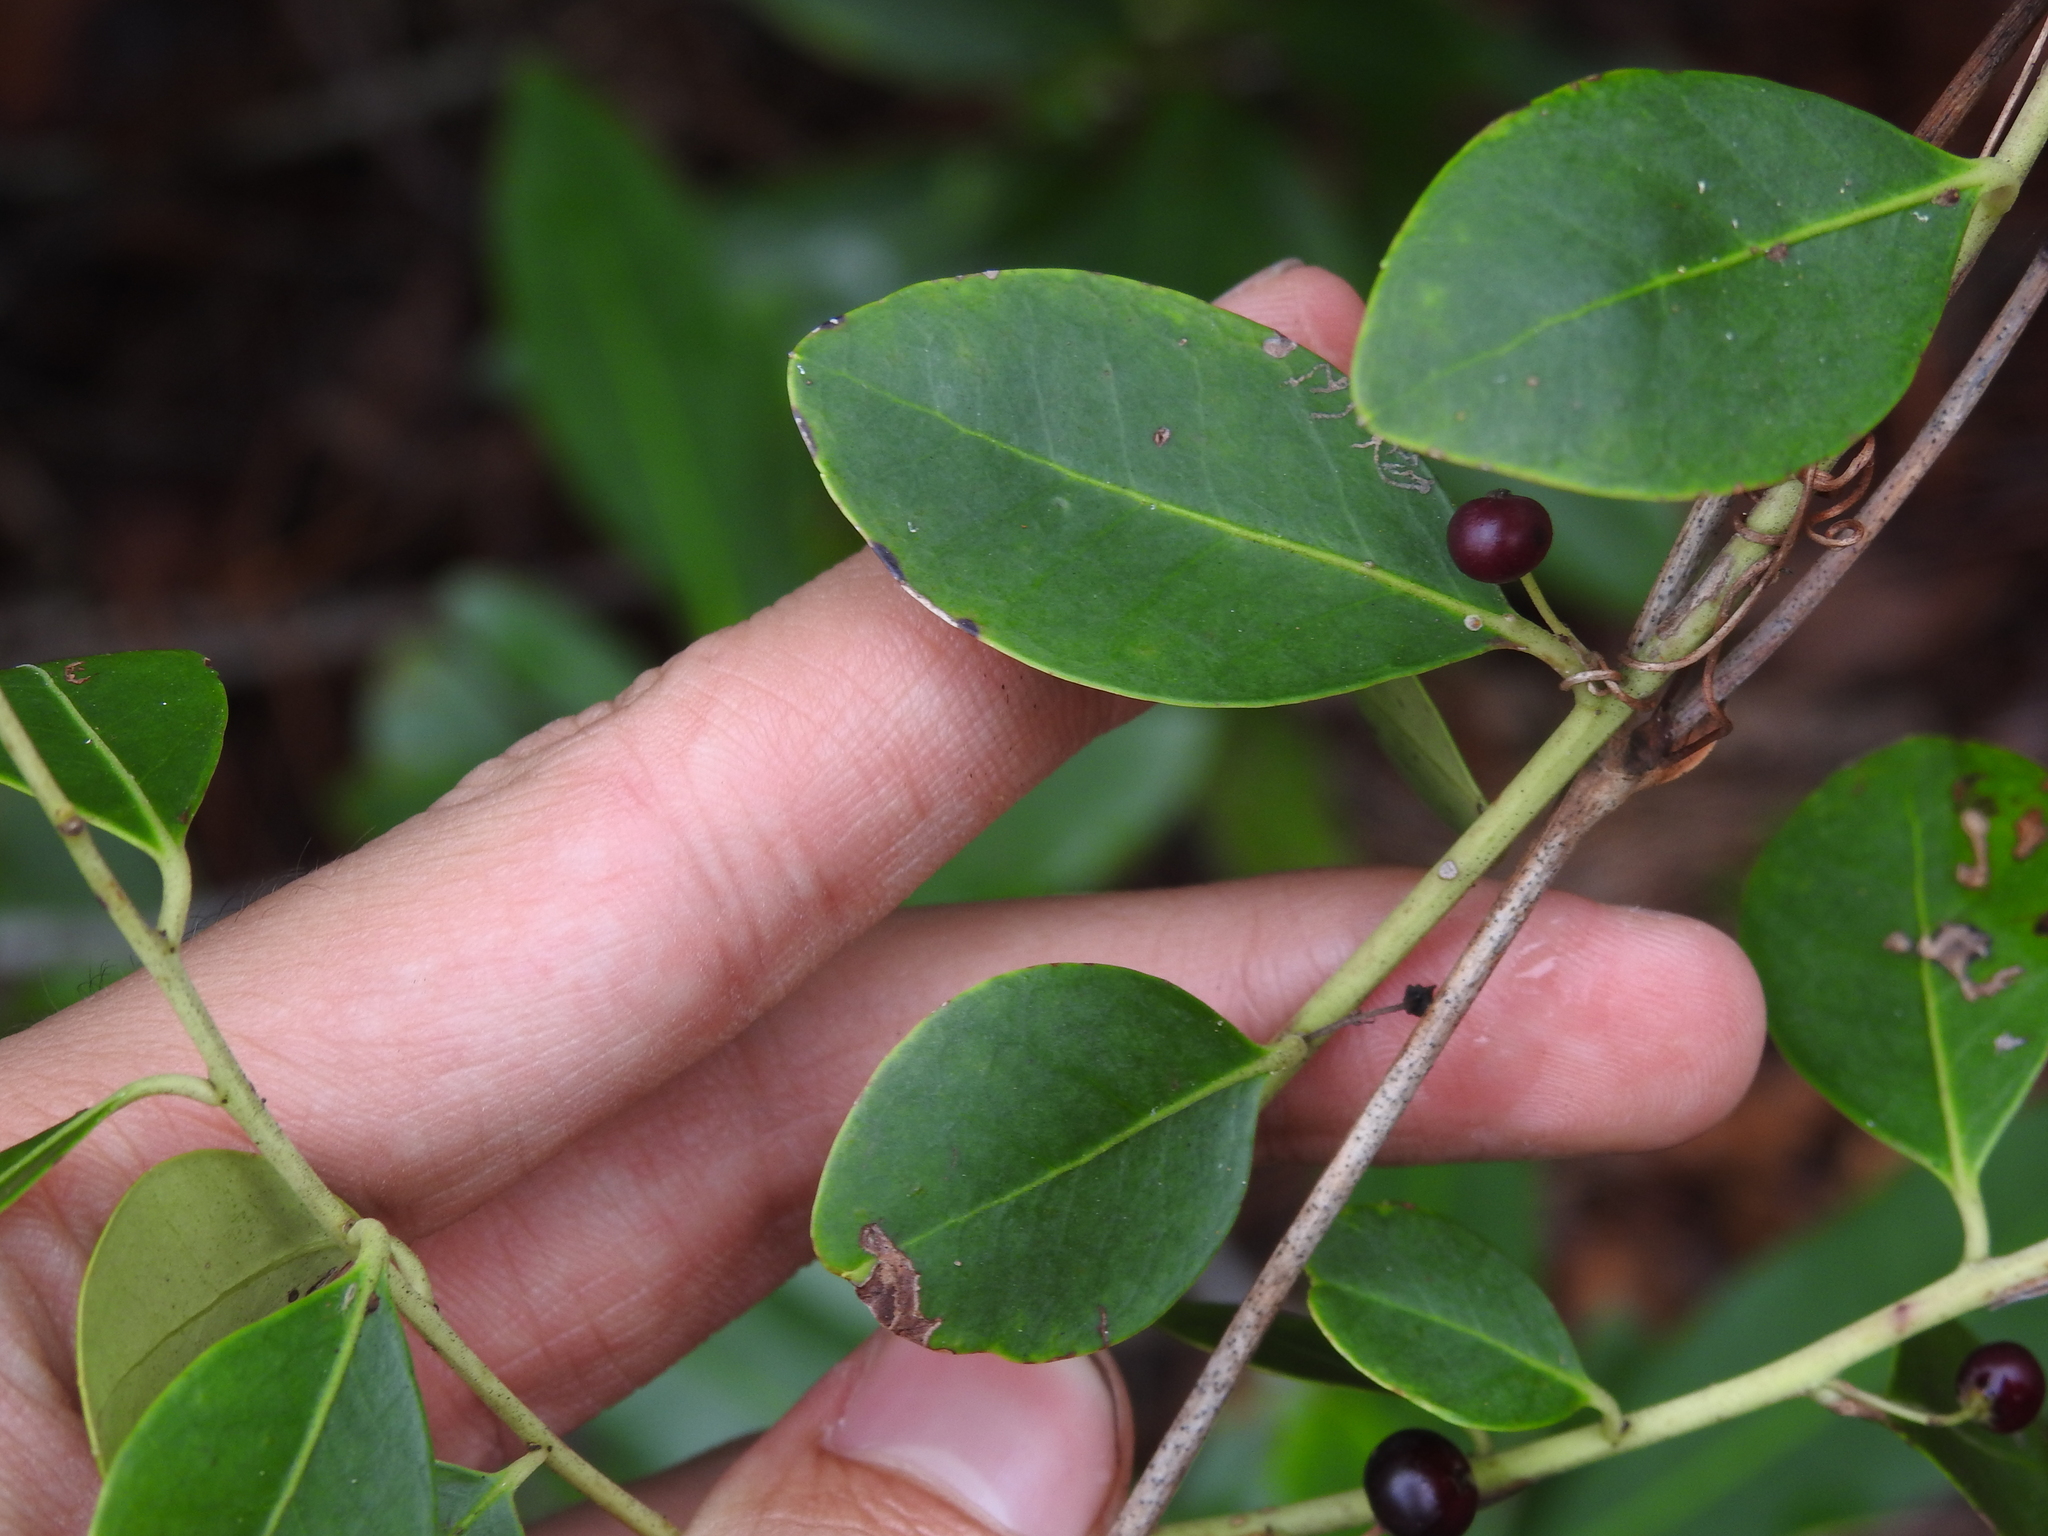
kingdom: Plantae
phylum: Tracheophyta
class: Magnoliopsida
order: Aquifoliales
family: Aquifoliaceae
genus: Ilex
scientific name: Ilex glabra
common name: Bitter gallberry
